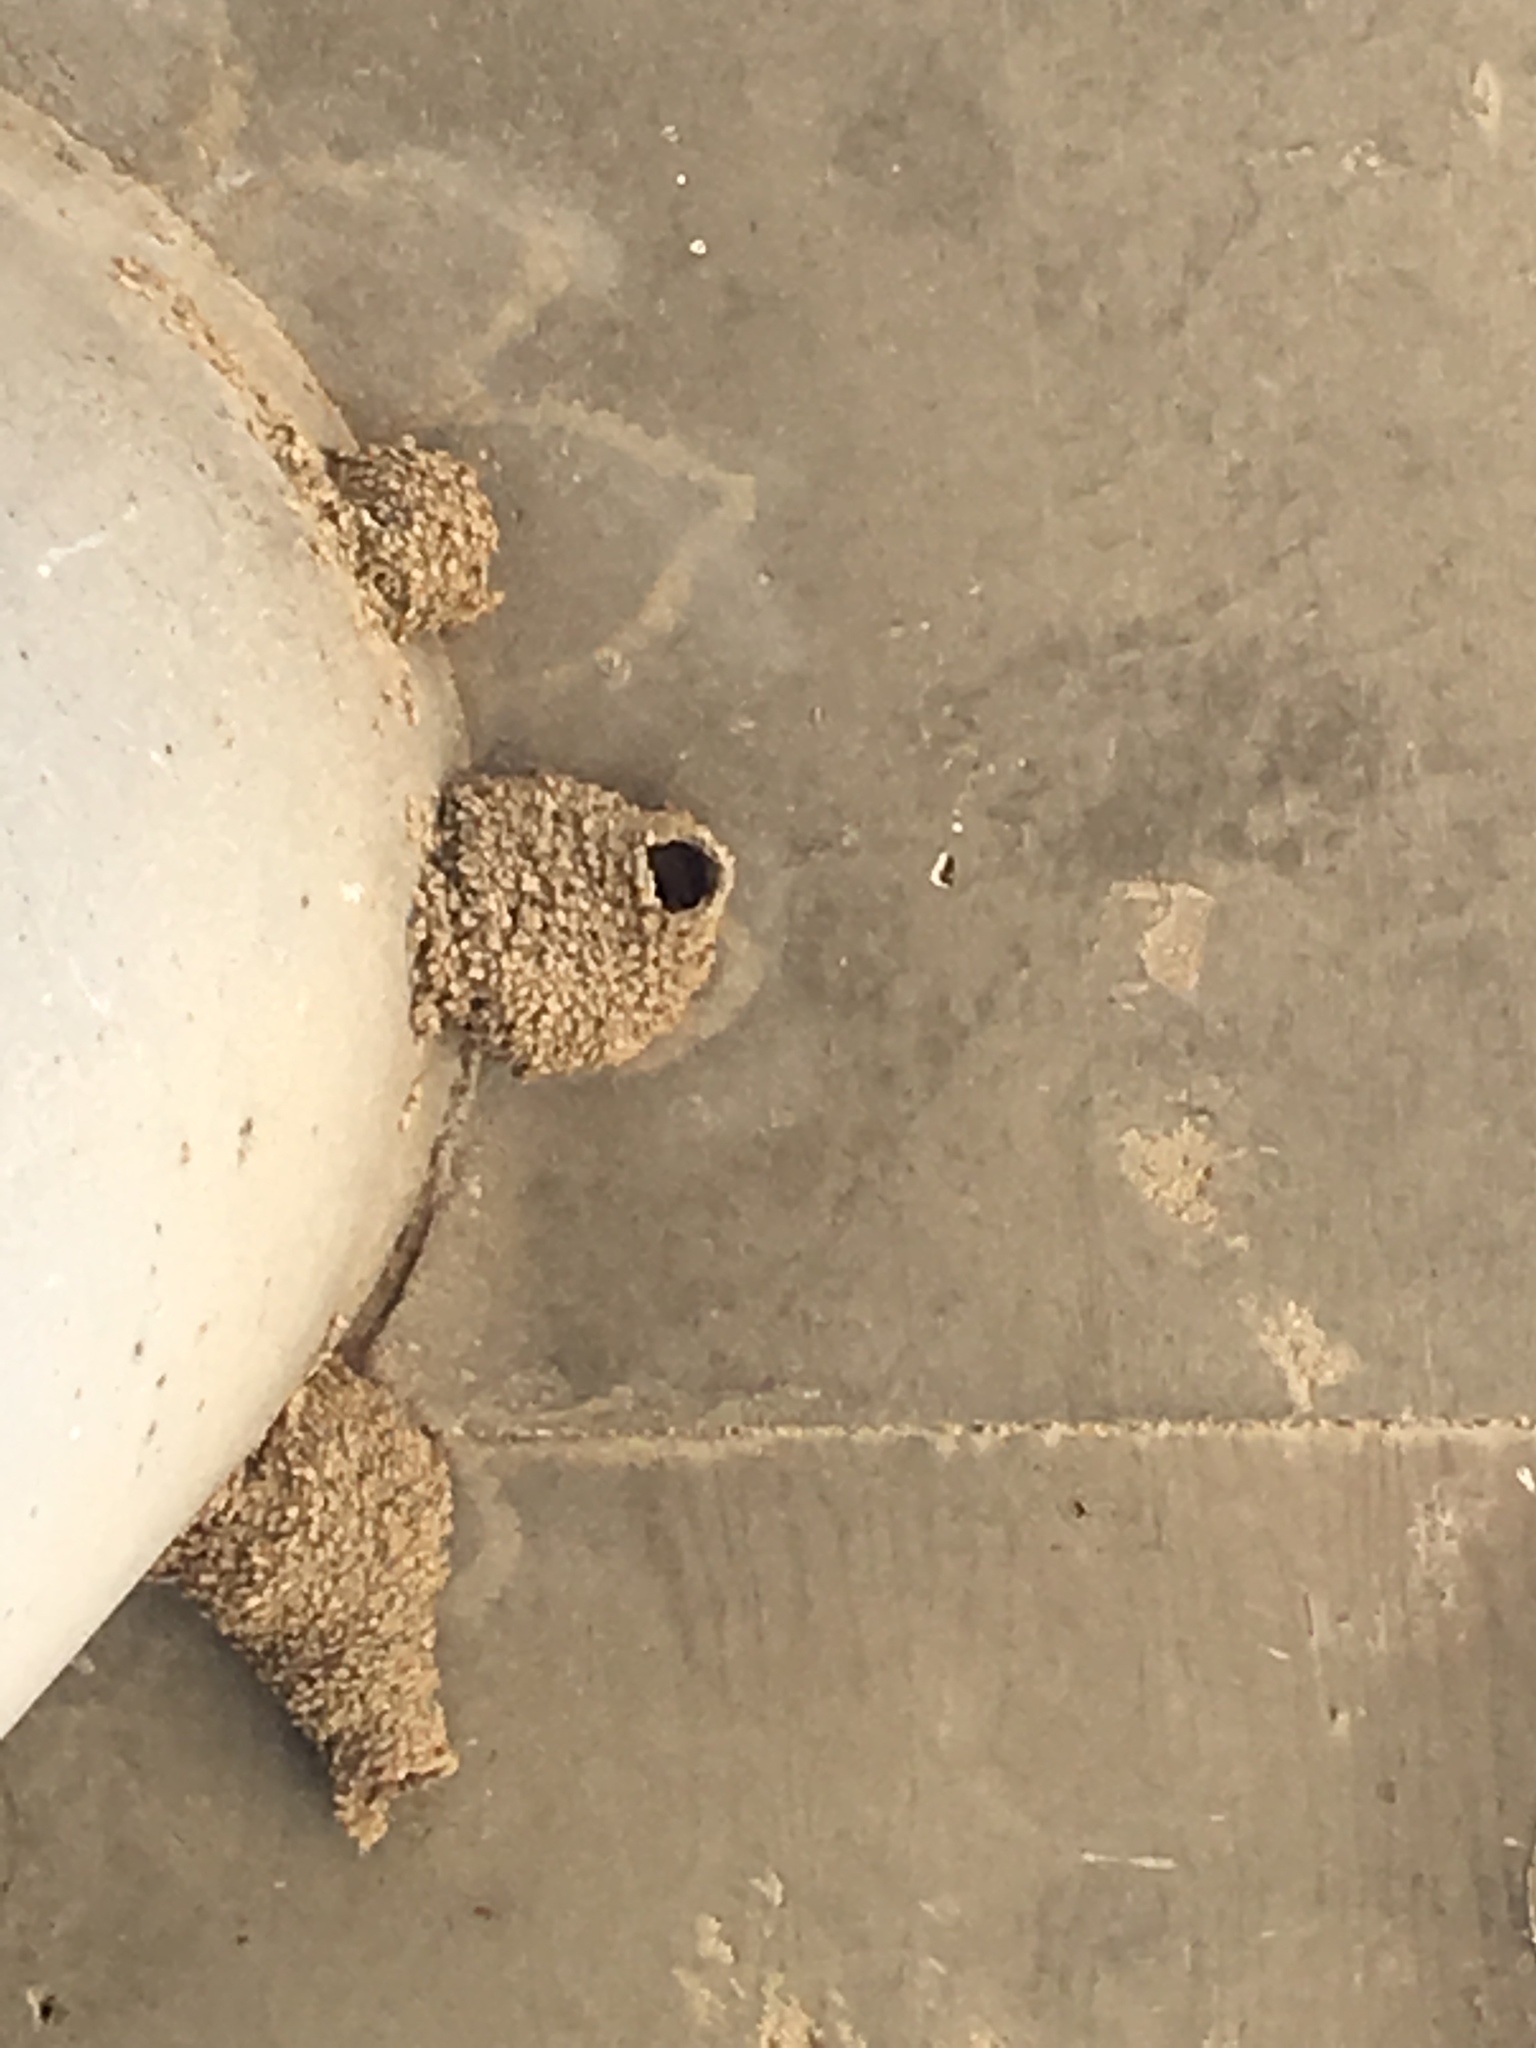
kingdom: Animalia
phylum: Chordata
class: Aves
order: Passeriformes
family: Hirundinidae
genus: Petrochelidon
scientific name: Petrochelidon pyrrhonota
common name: American cliff swallow
